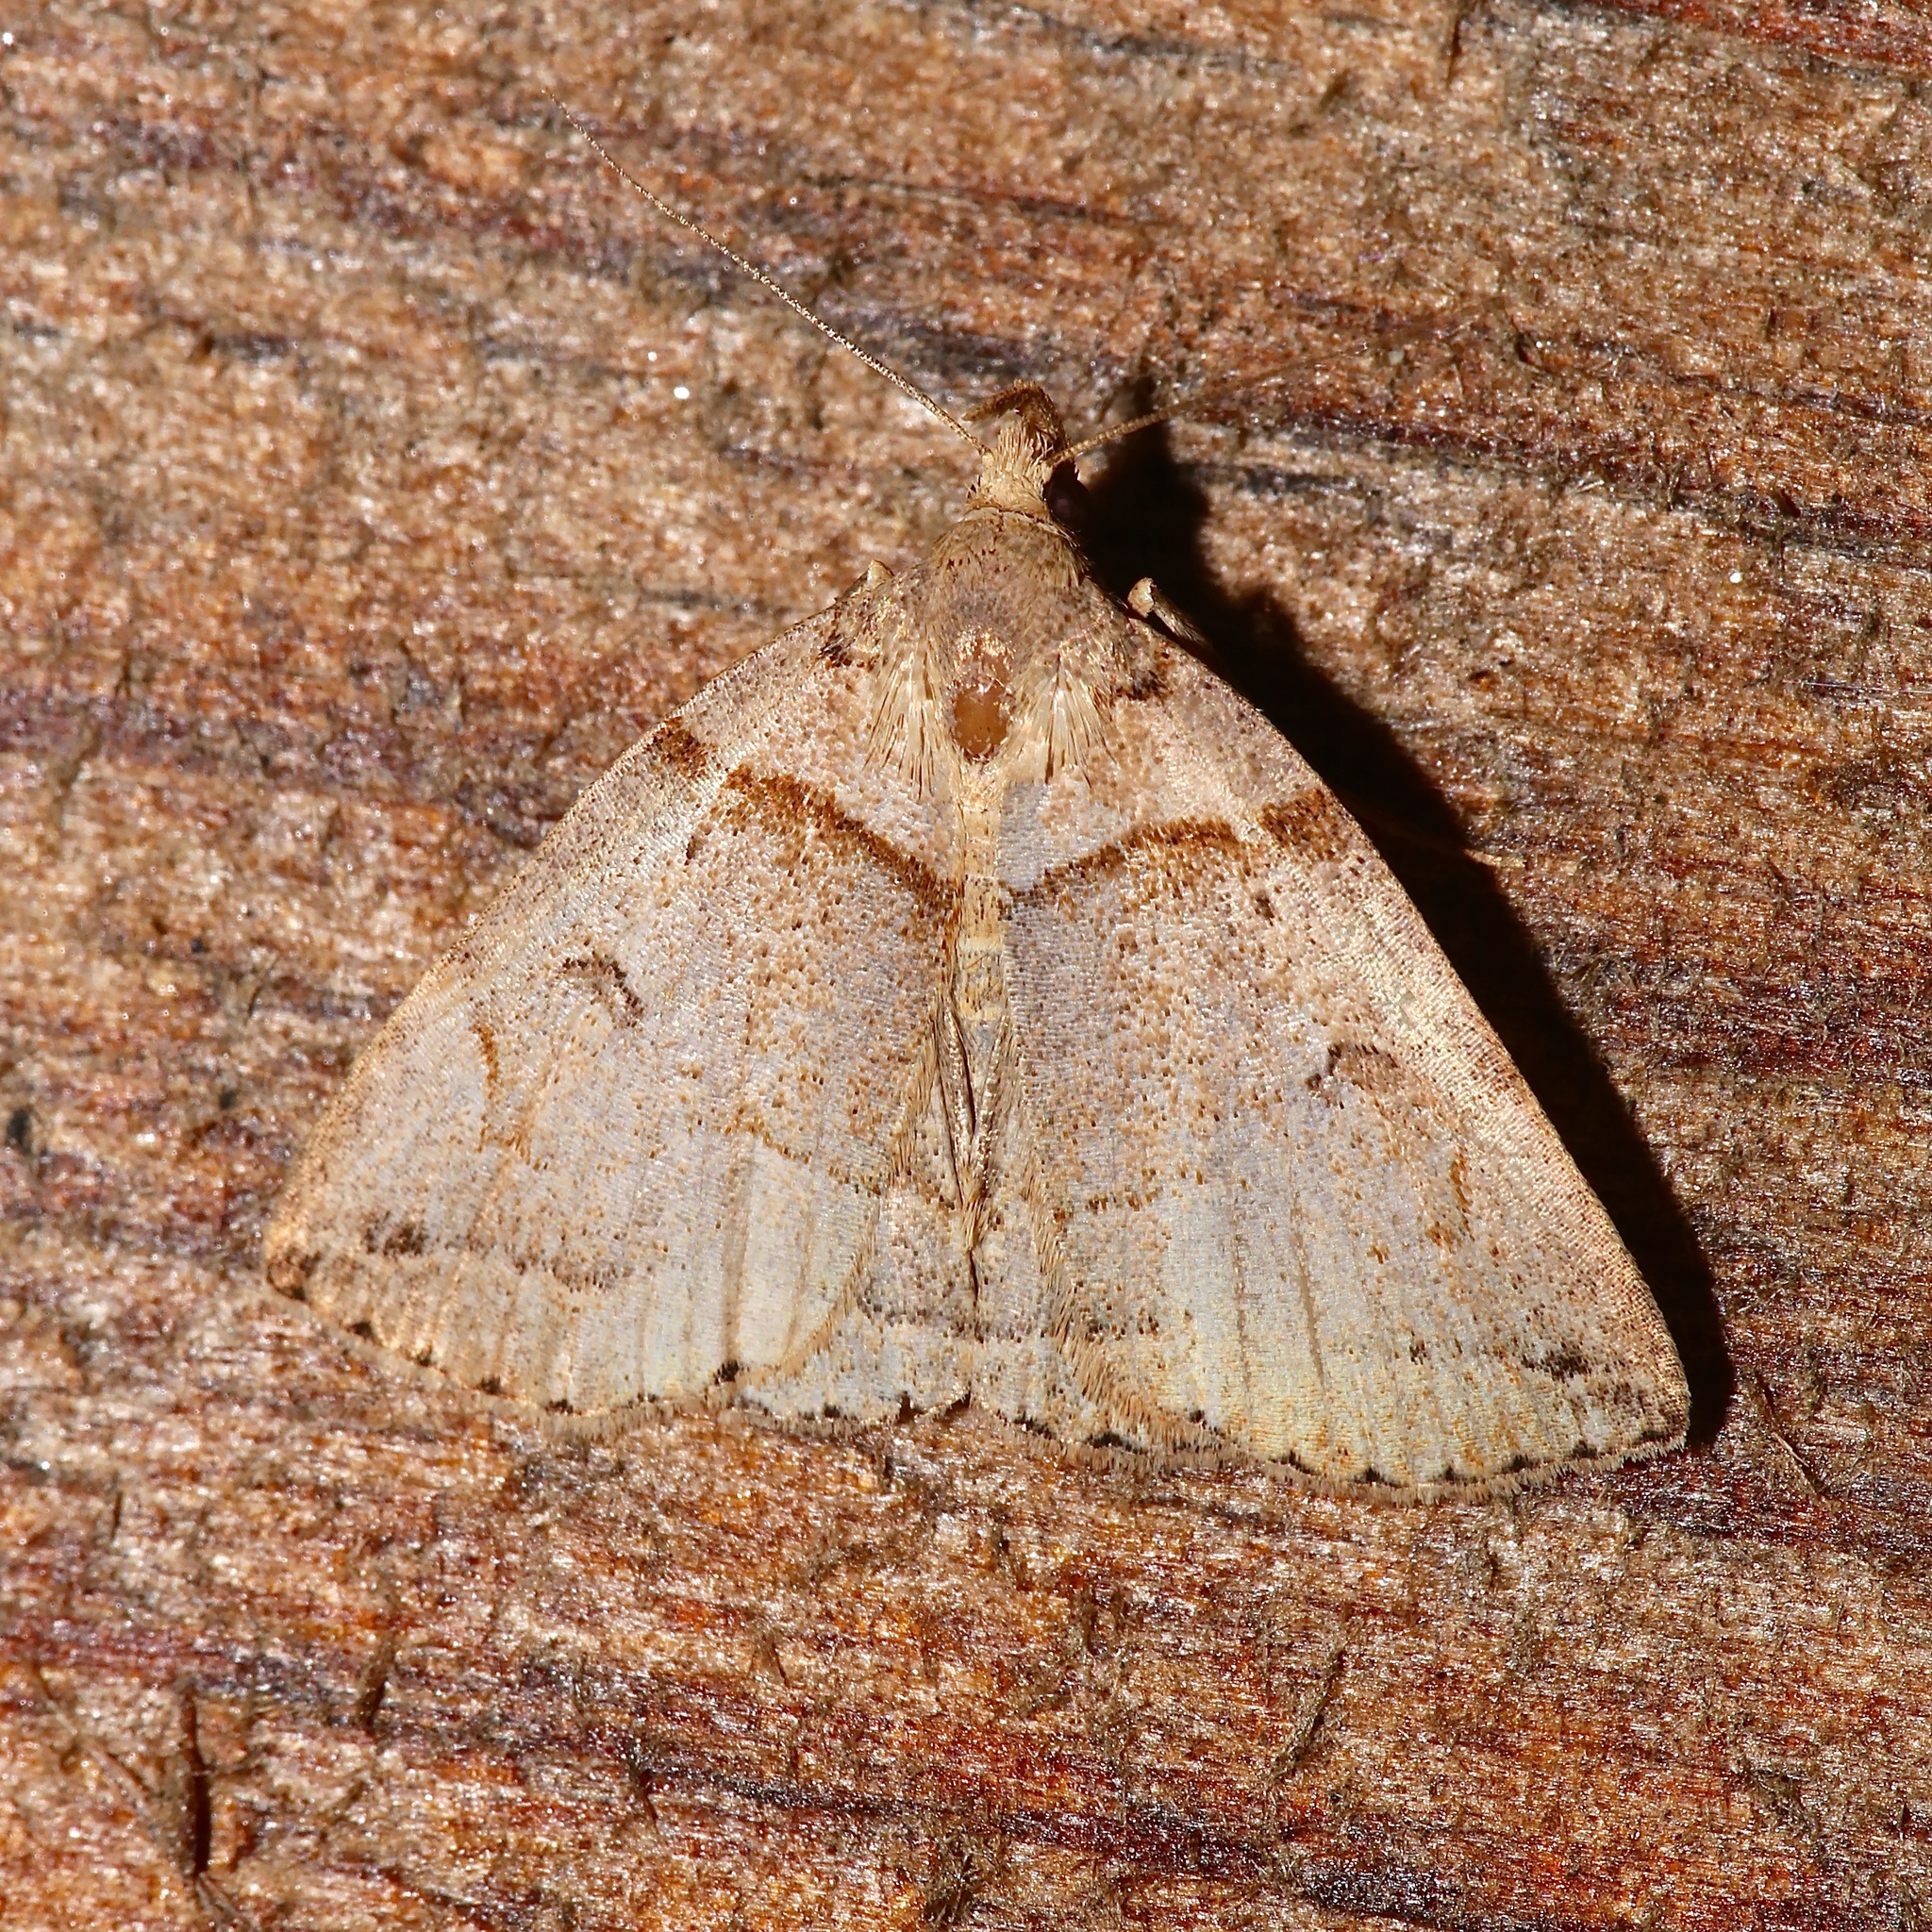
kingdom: Animalia
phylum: Arthropoda
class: Insecta
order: Lepidoptera
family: Erebidae
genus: Zanclognatha
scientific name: Zanclognatha laevigata
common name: Variable fan-foot
